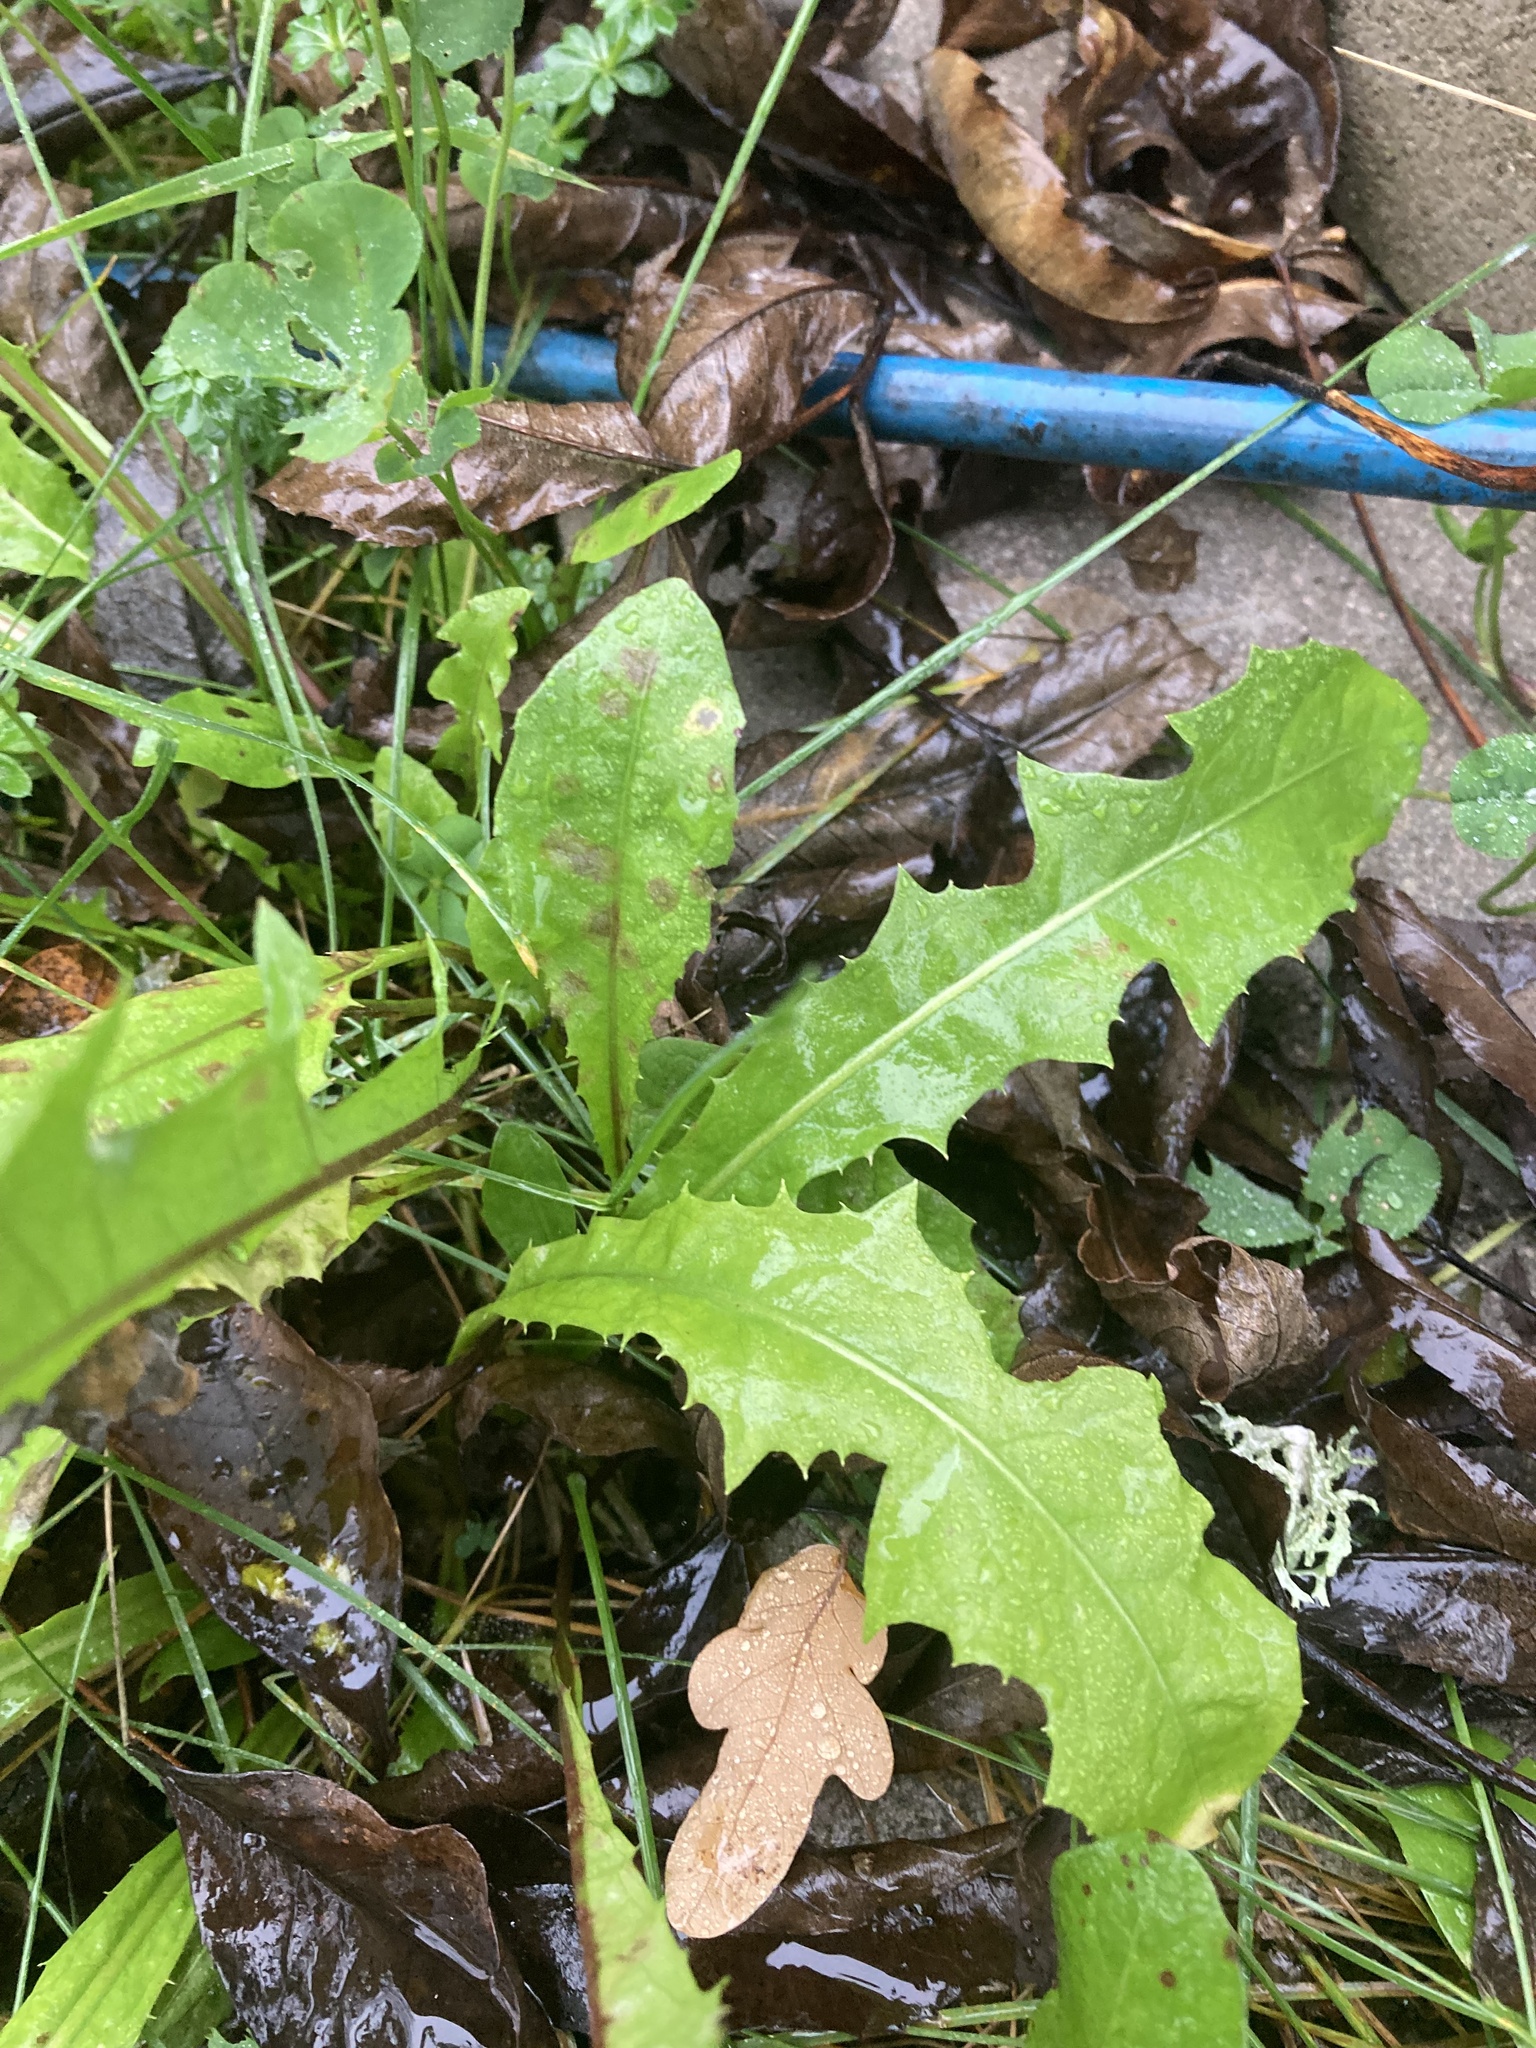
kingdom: Plantae
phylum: Tracheophyta
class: Magnoliopsida
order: Asterales
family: Asteraceae
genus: Taraxacum
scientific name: Taraxacum officinale
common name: Common dandelion
